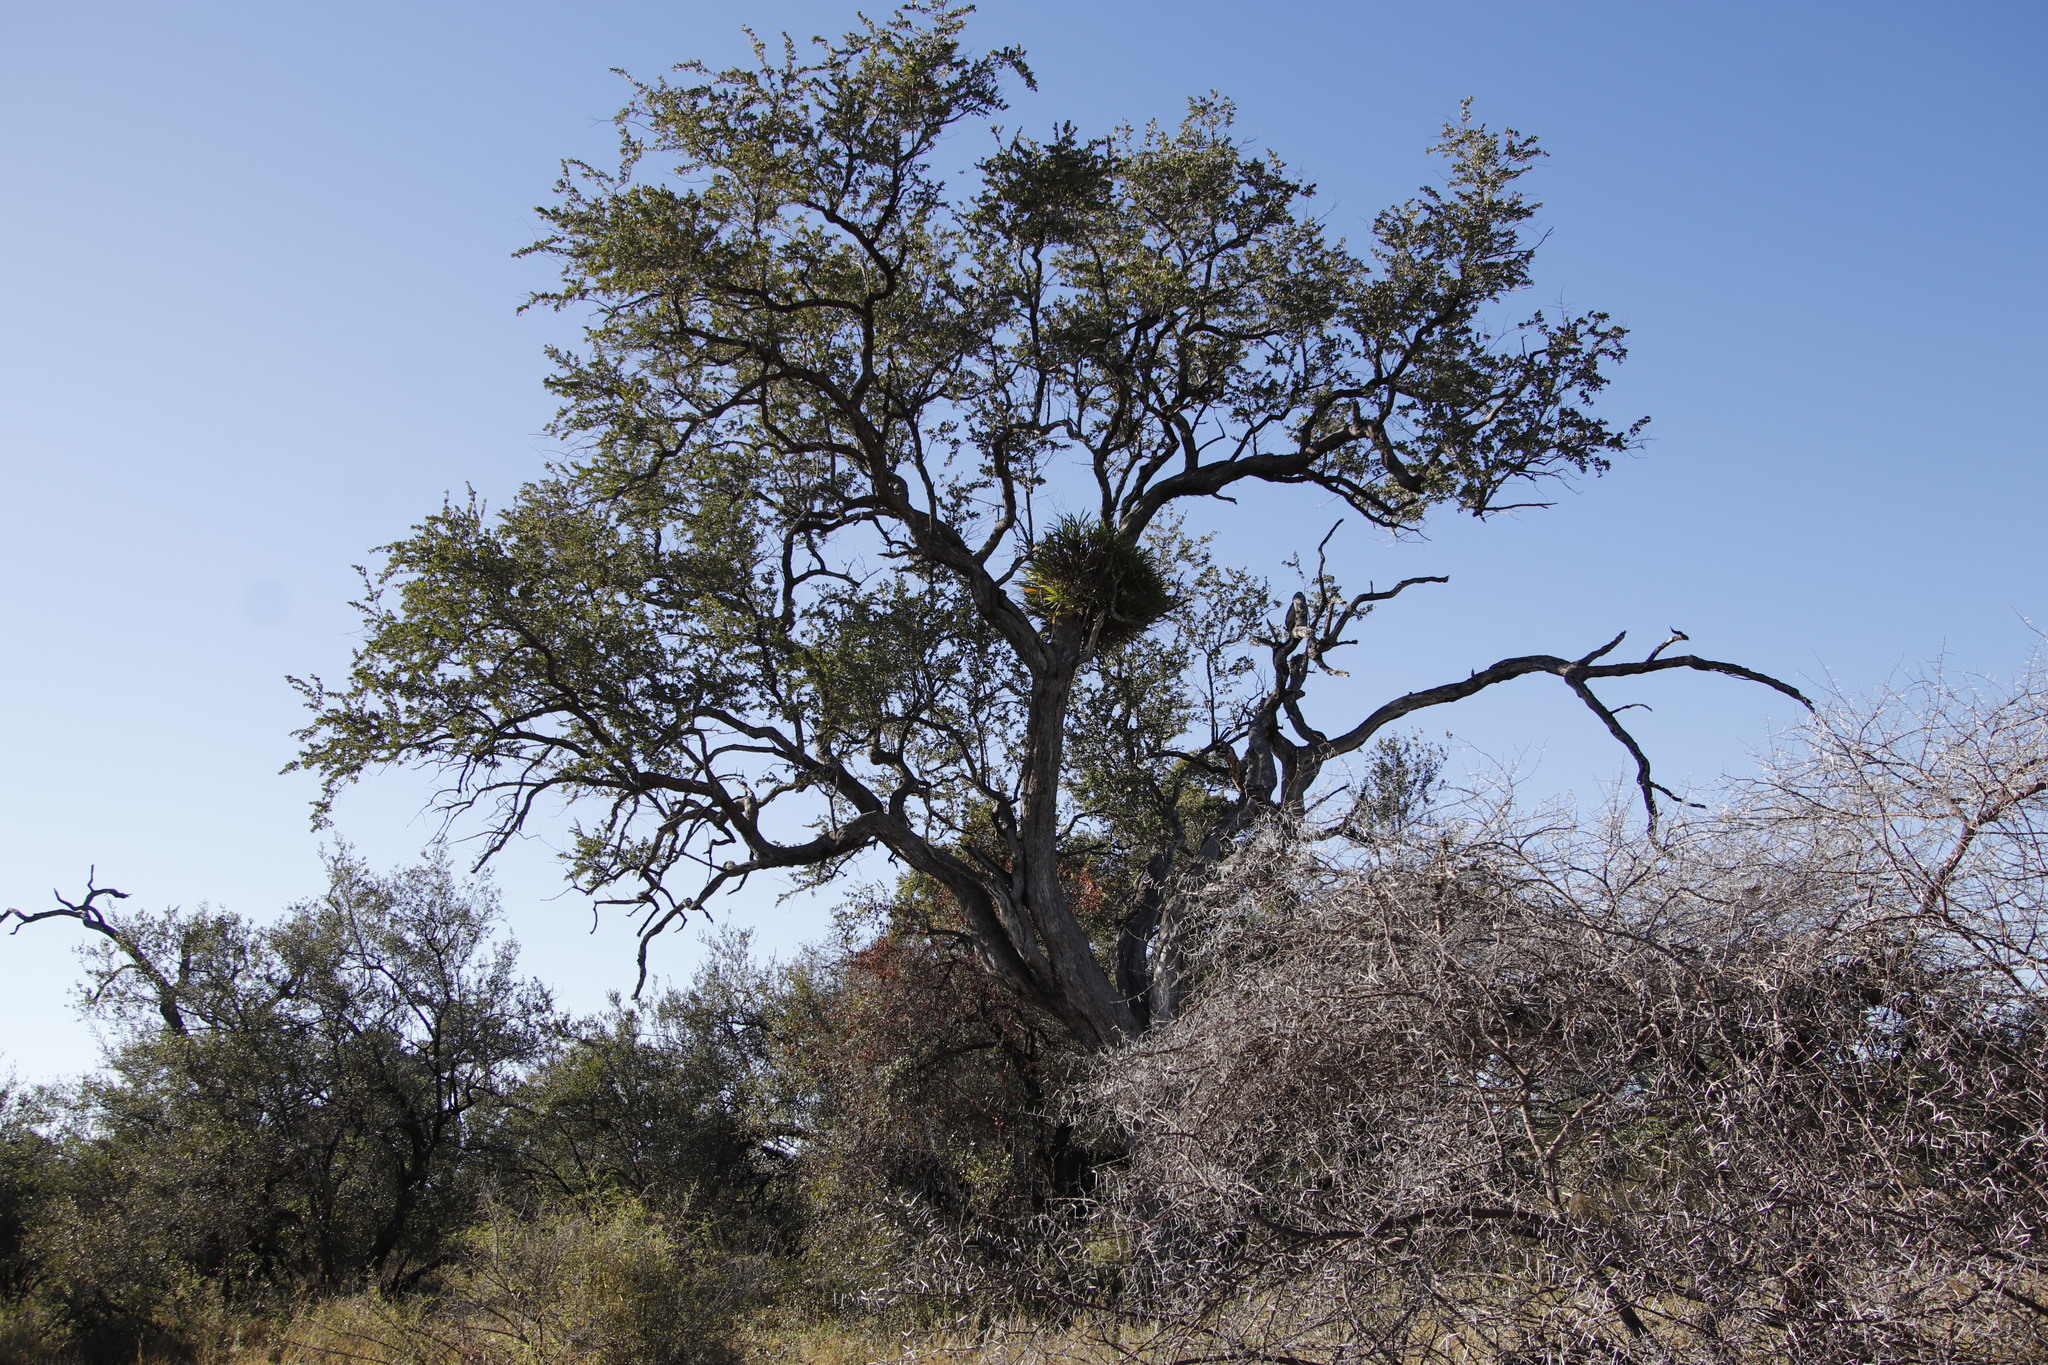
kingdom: Plantae
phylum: Tracheophyta
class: Liliopsida
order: Asparagales
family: Orchidaceae
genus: Ansellia
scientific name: Ansellia africana
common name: African ansellia
